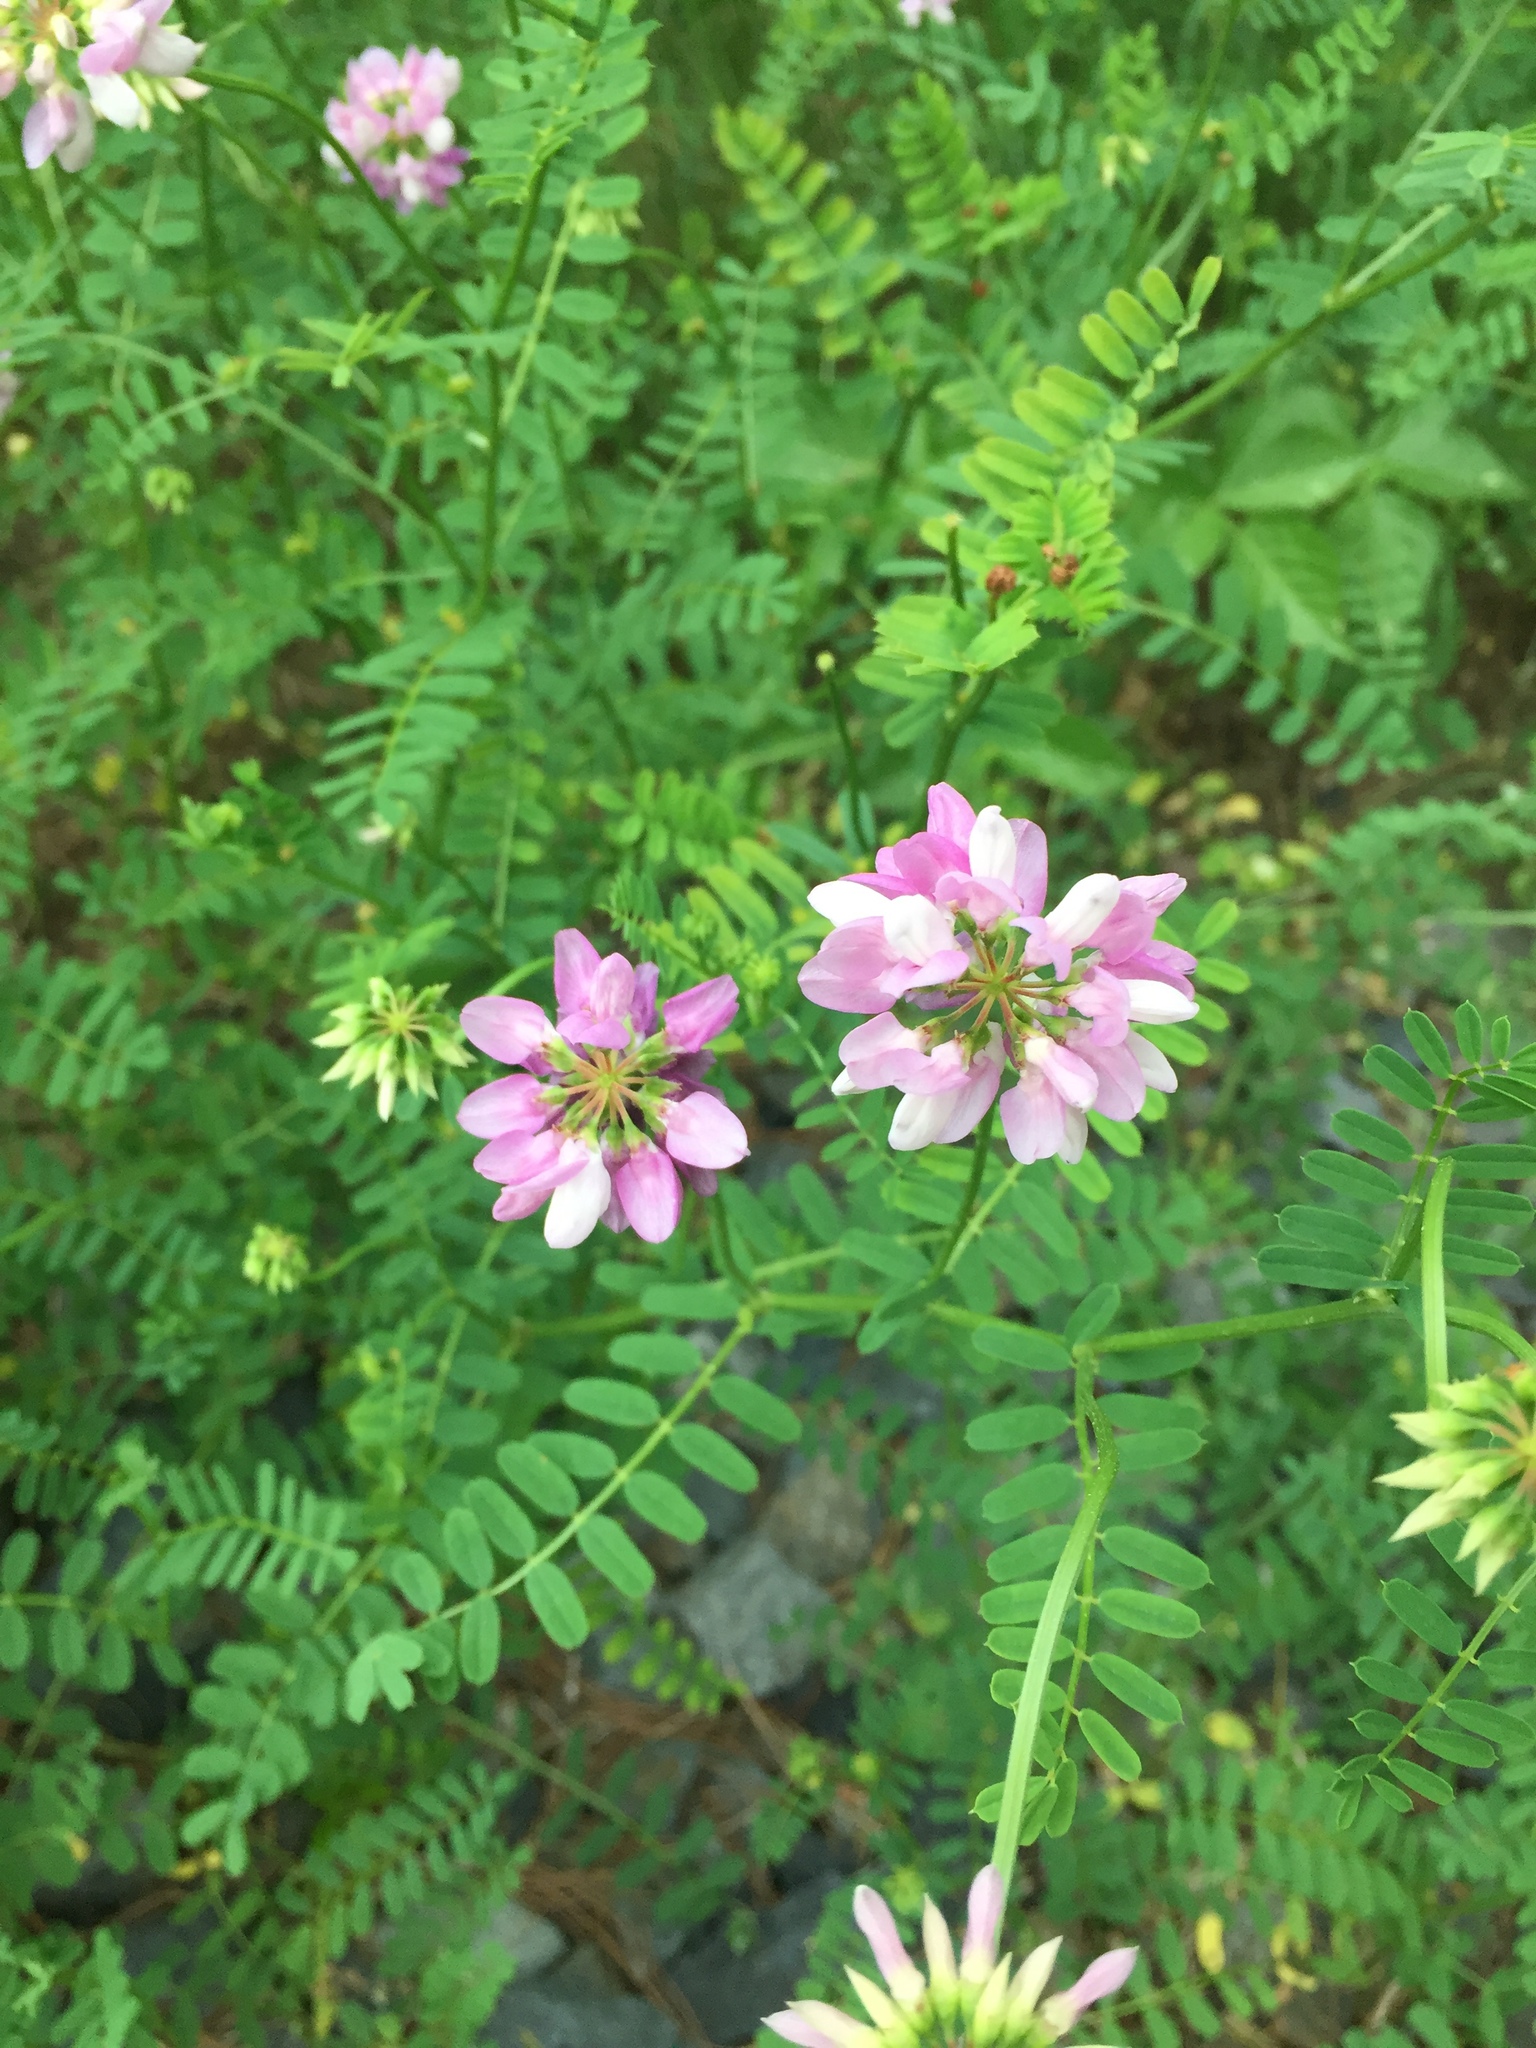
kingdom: Plantae
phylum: Tracheophyta
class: Magnoliopsida
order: Fabales
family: Fabaceae
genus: Coronilla
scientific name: Coronilla varia
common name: Crownvetch
